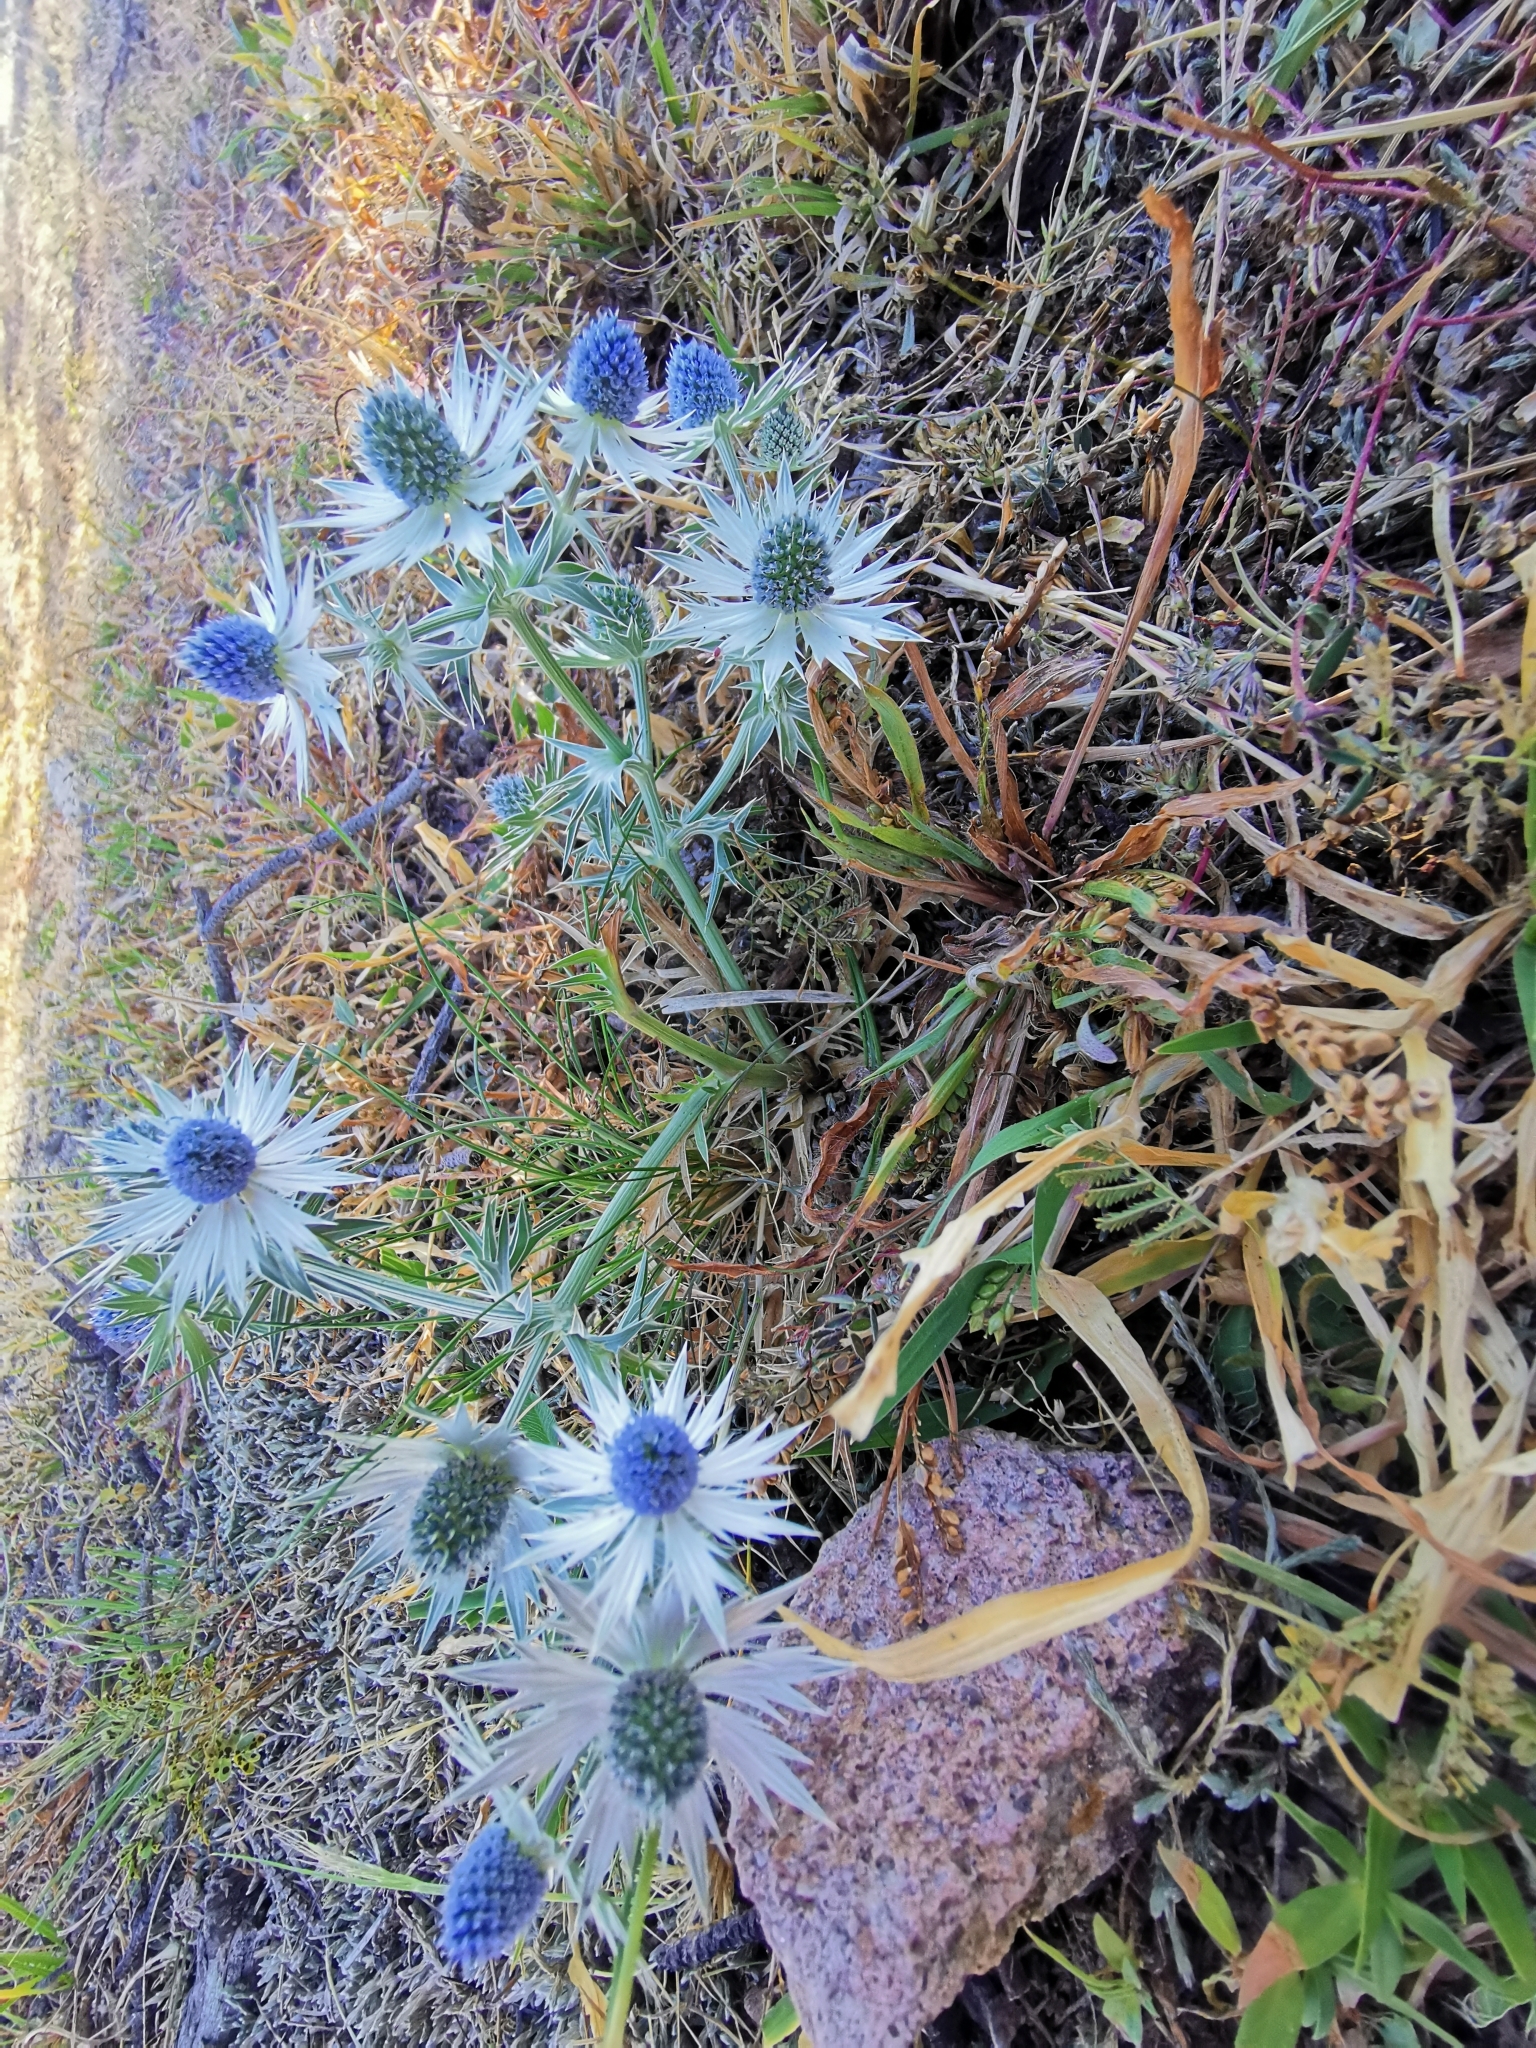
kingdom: Plantae
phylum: Tracheophyta
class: Magnoliopsida
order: Apiales
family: Apiaceae
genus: Eryngium
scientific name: Eryngium heterophyllum
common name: Mexican thistle
